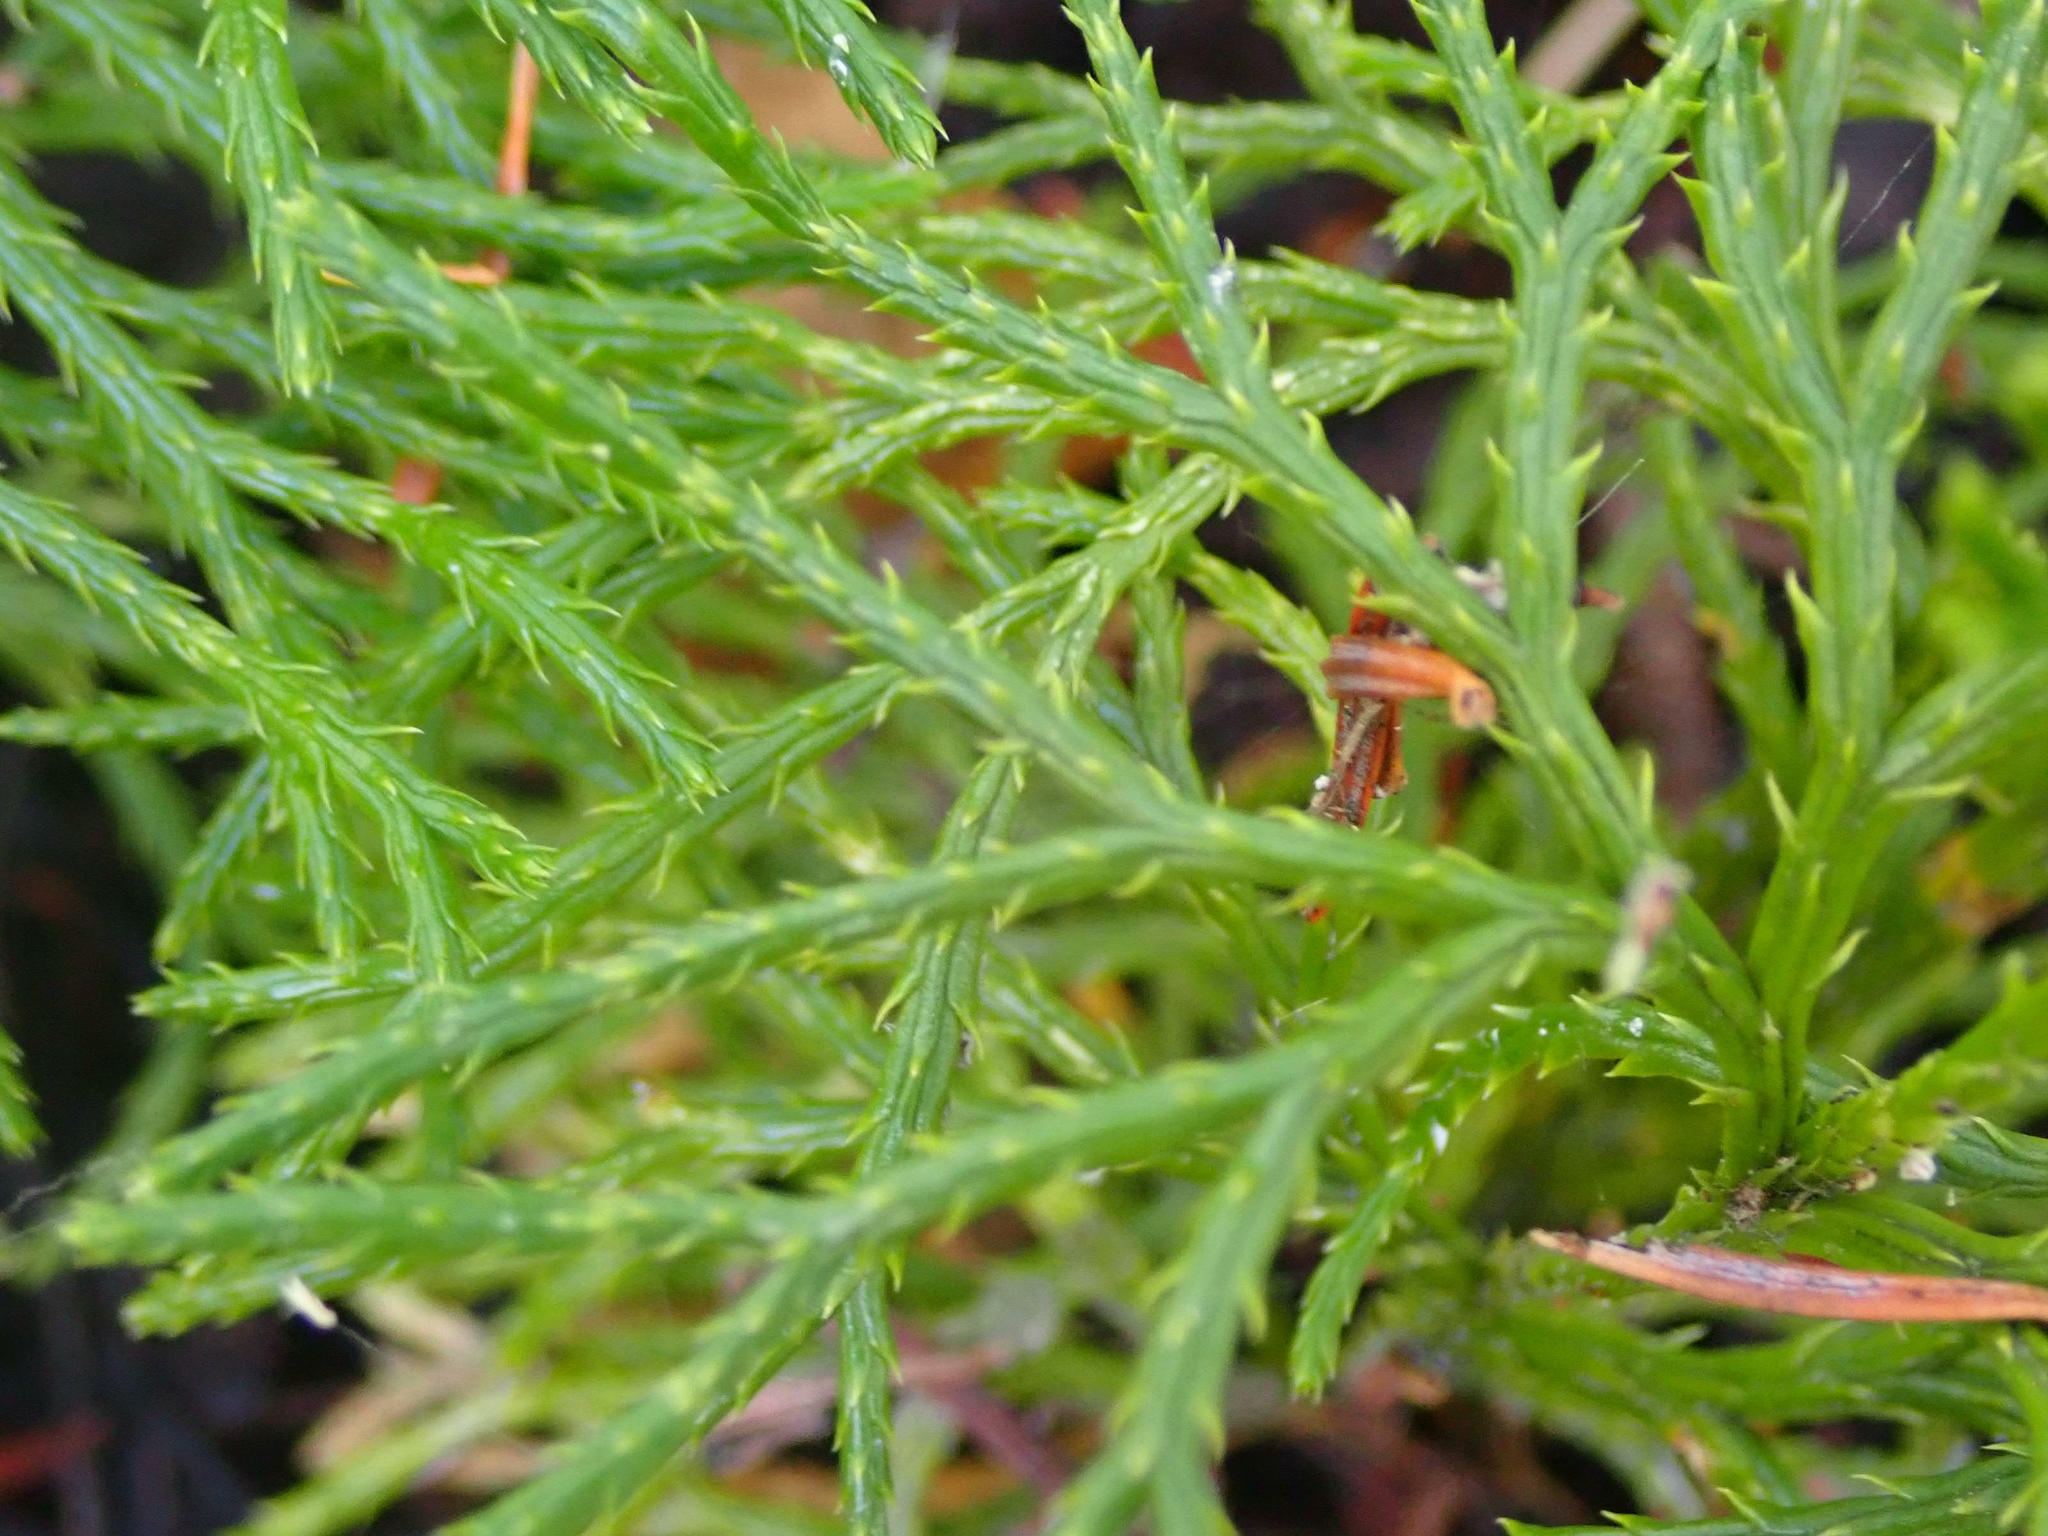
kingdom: Plantae
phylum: Tracheophyta
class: Lycopodiopsida
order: Lycopodiales
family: Lycopodiaceae
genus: Diphasiastrum
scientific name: Diphasiastrum complanatum
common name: Northern running-pine
